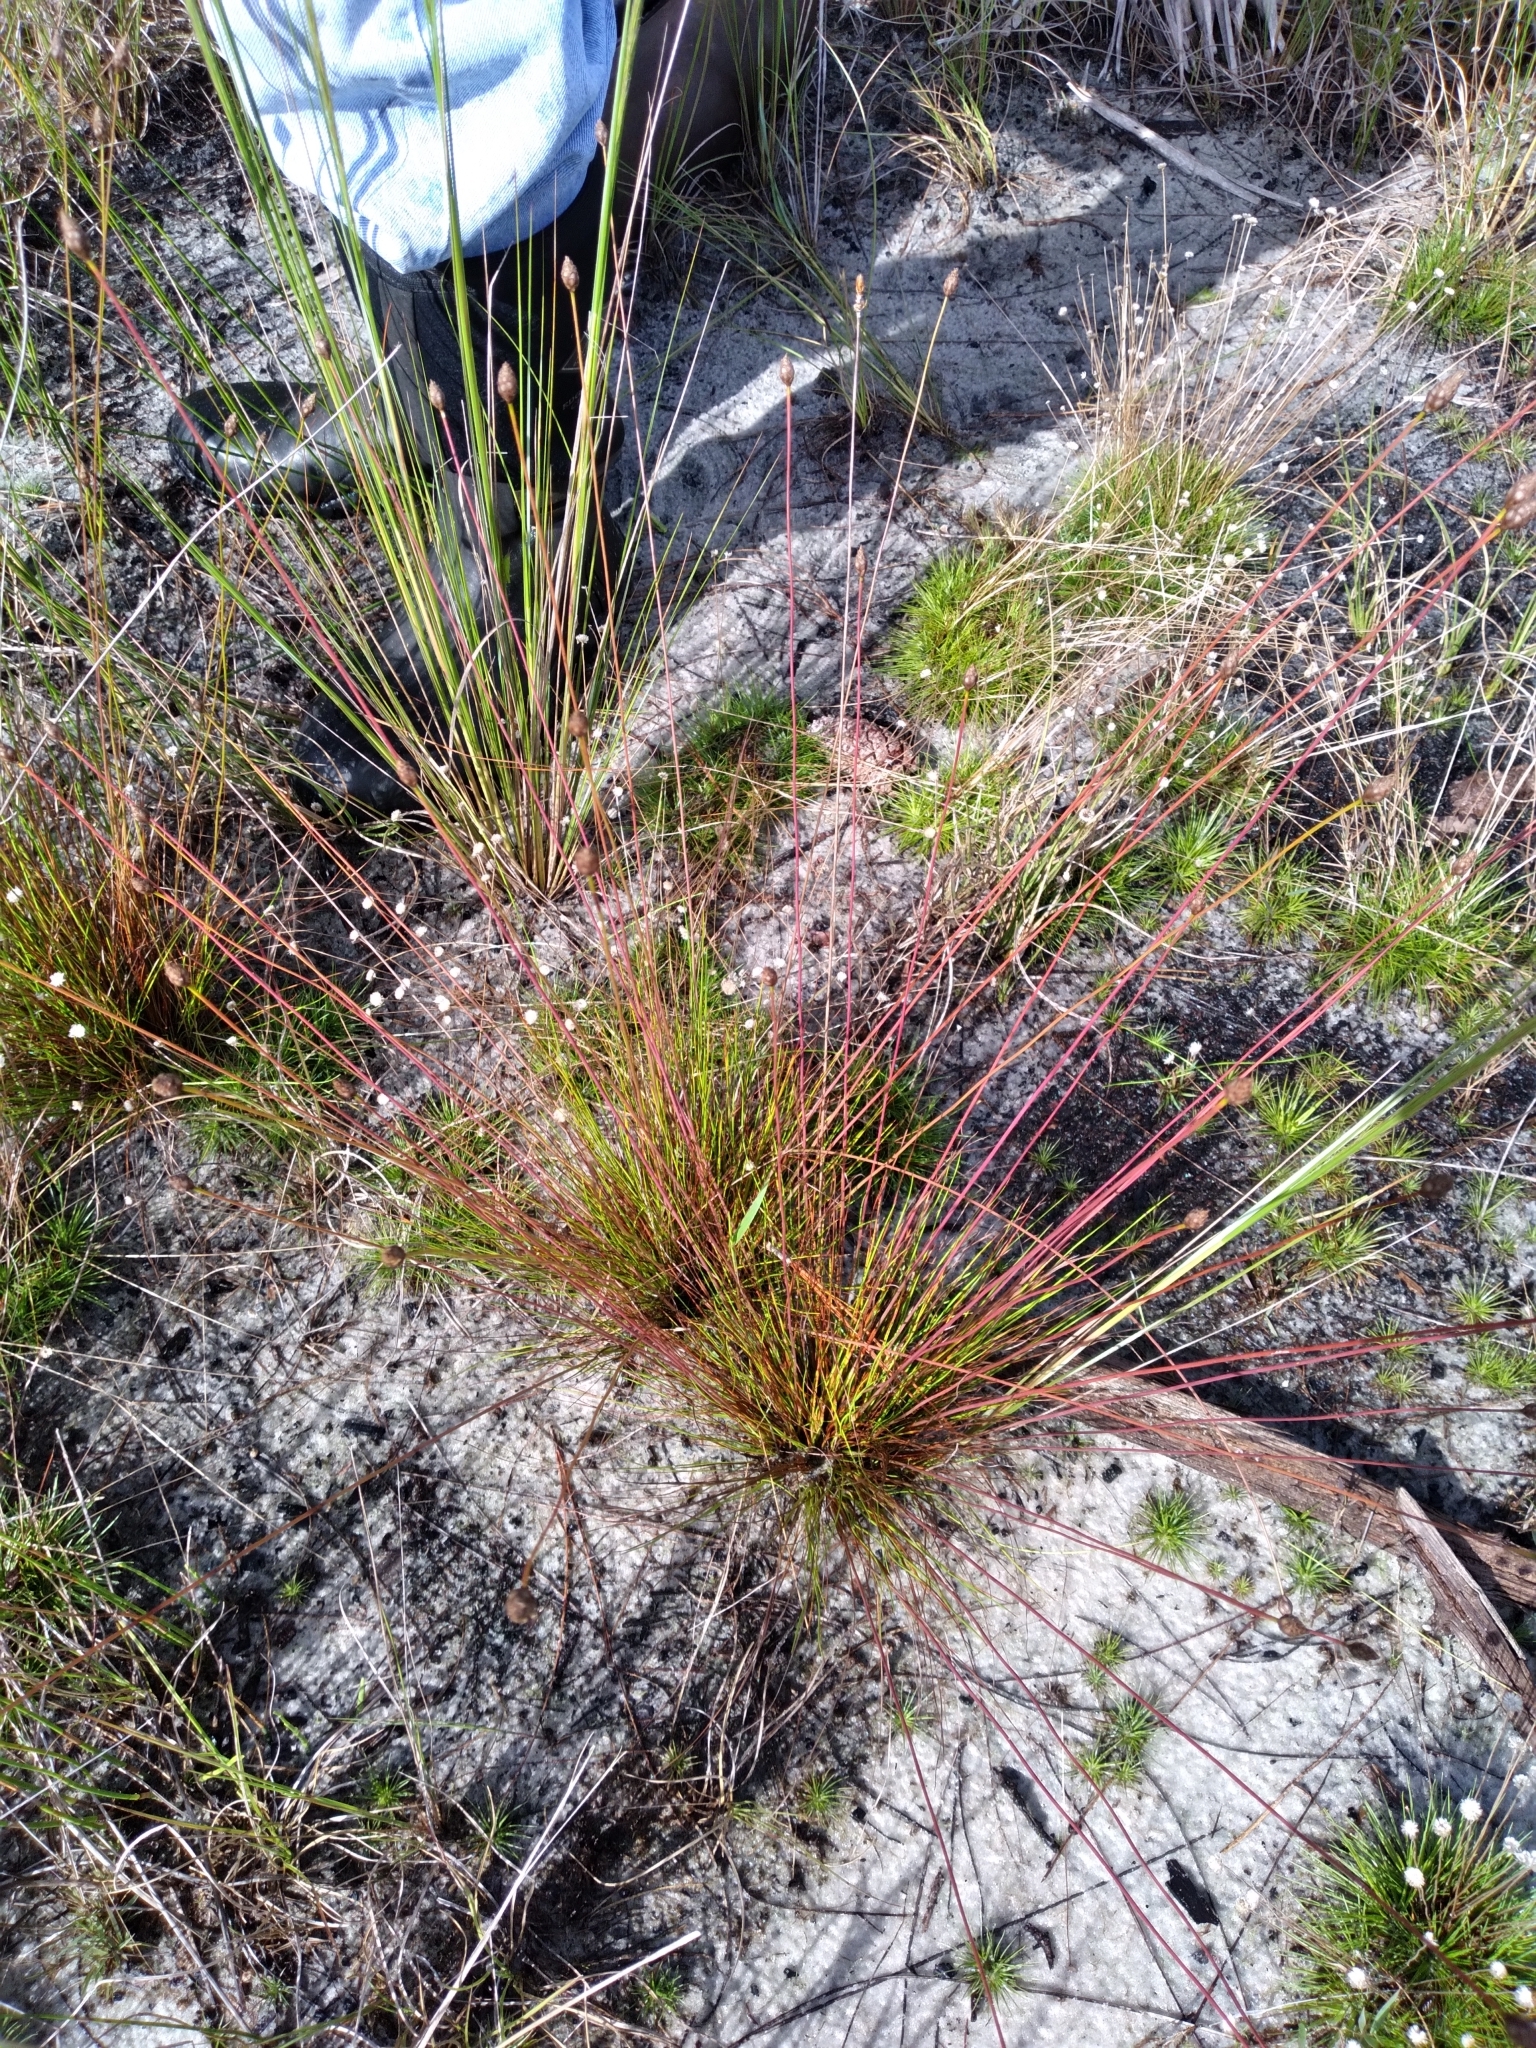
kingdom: Plantae
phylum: Tracheophyta
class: Liliopsida
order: Poales
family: Xyridaceae
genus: Xyris
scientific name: Xyris stenotera
